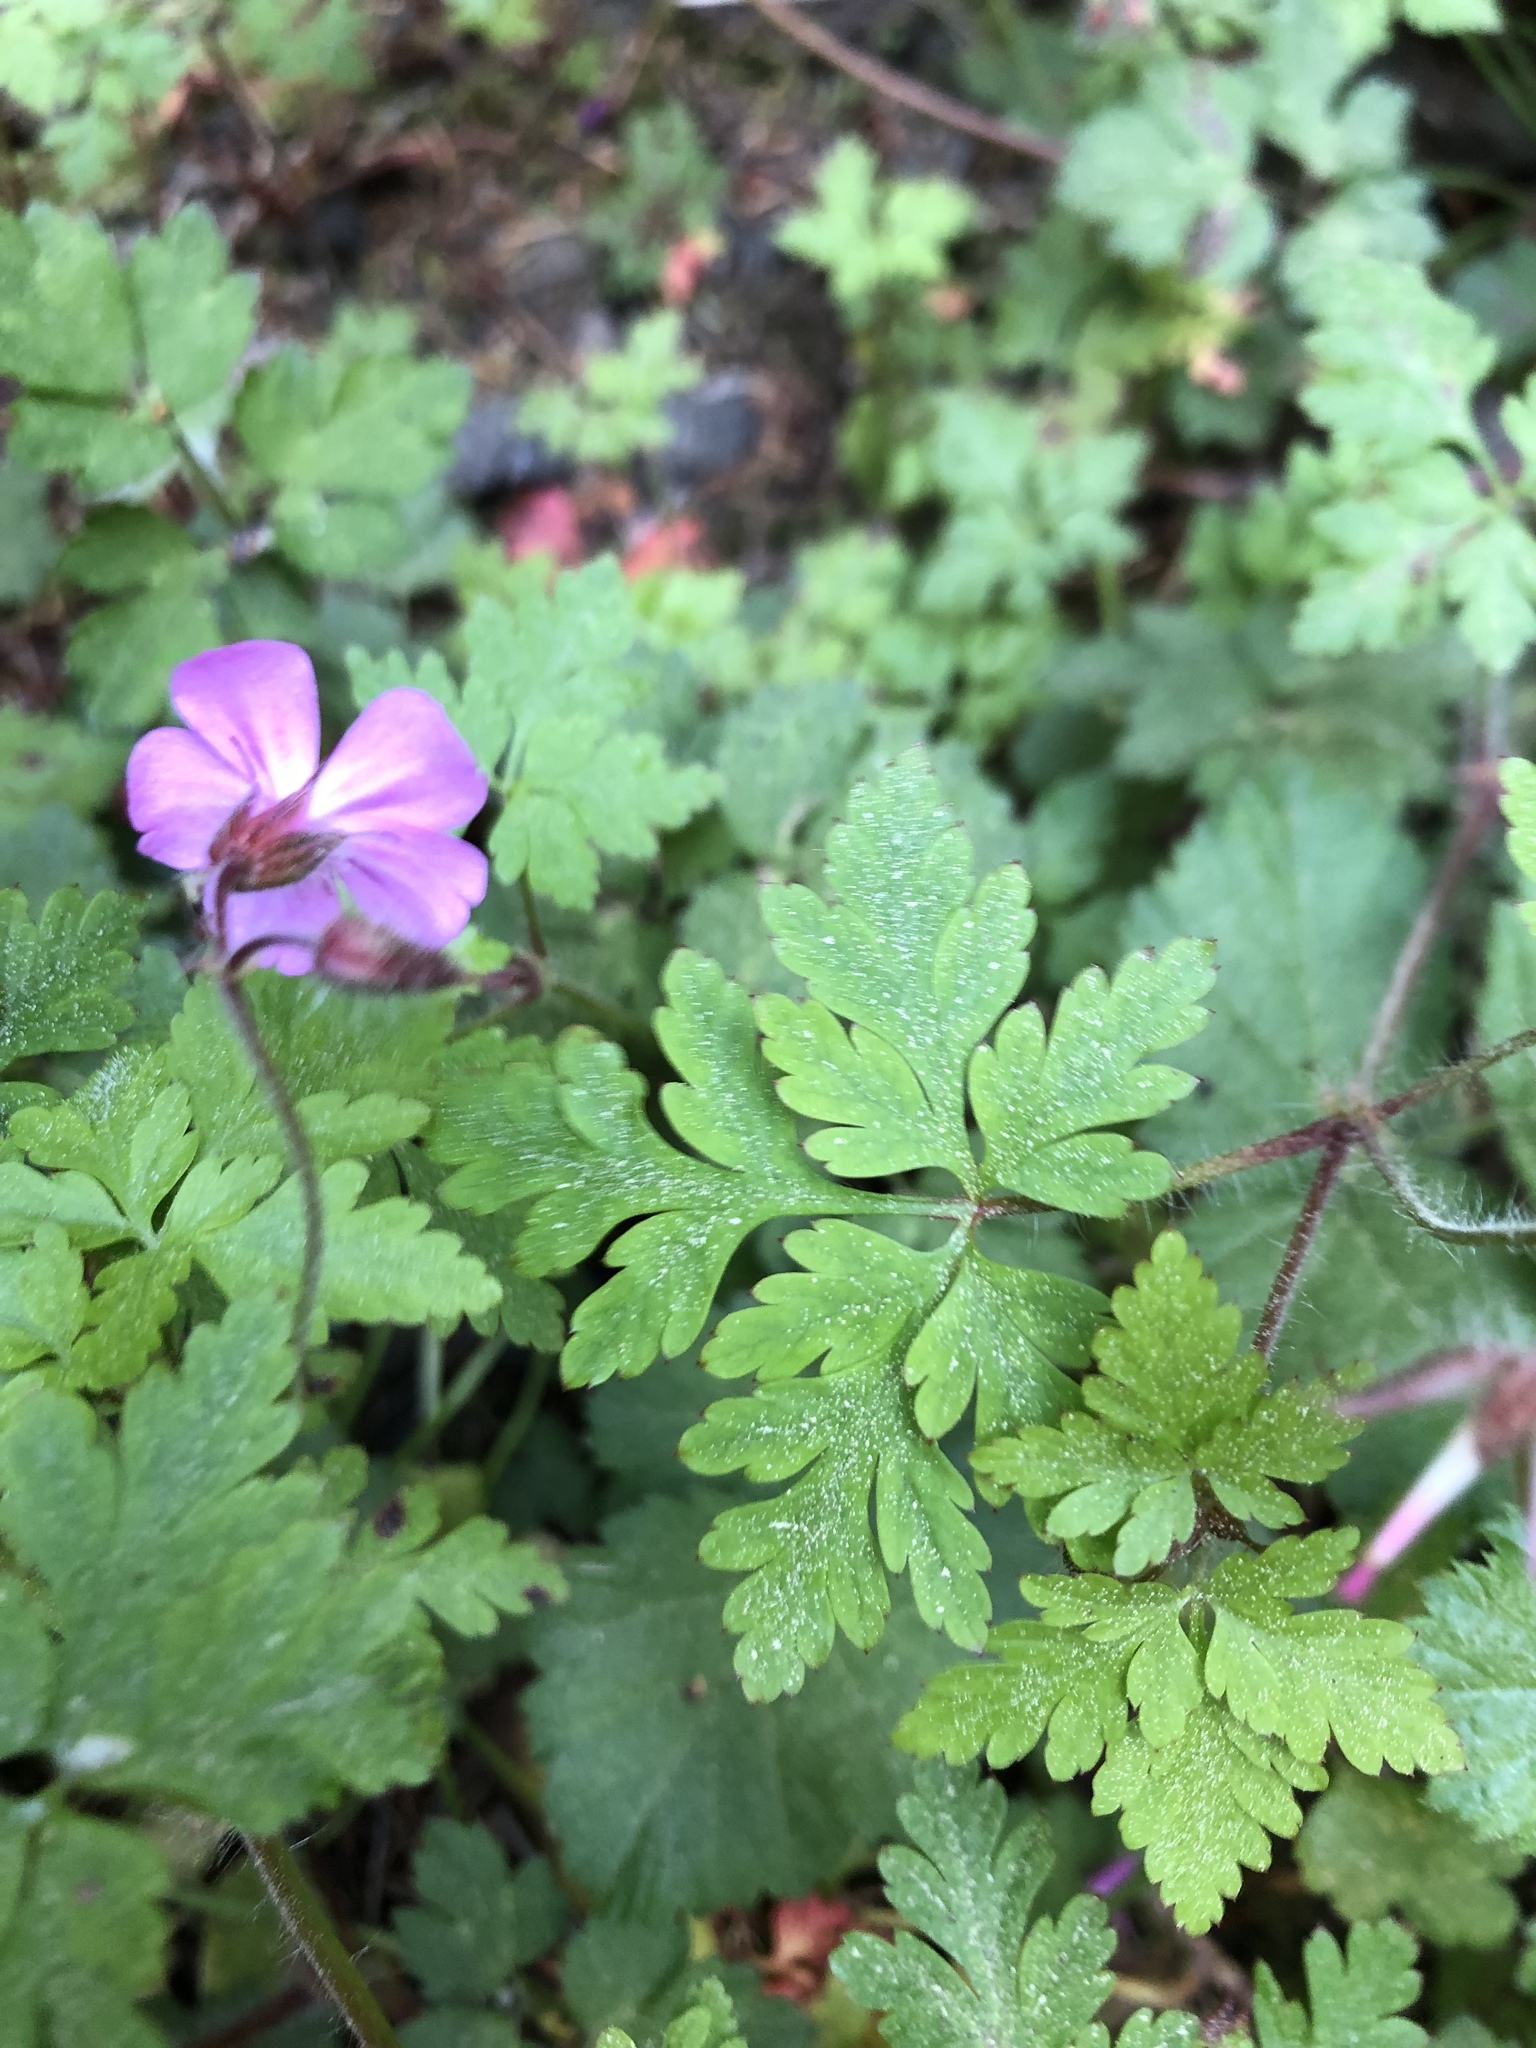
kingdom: Plantae
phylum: Tracheophyta
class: Magnoliopsida
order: Geraniales
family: Geraniaceae
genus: Geranium
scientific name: Geranium robertianum
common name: Herb-robert
